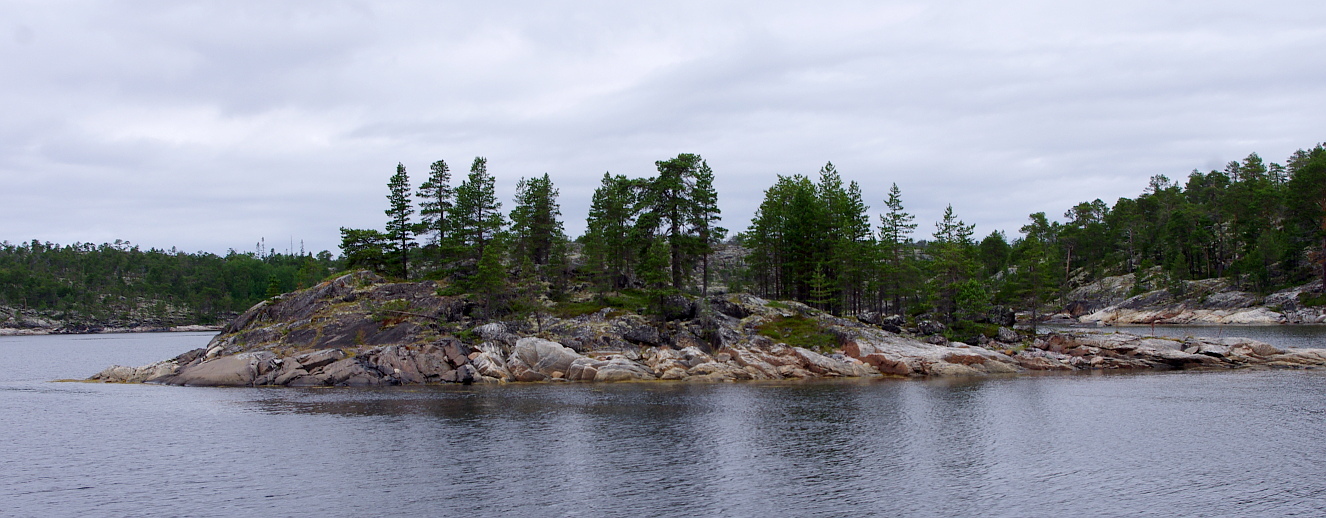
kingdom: Plantae
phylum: Tracheophyta
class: Pinopsida
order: Pinales
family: Pinaceae
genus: Pinus
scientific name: Pinus sylvestris
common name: Scots pine
